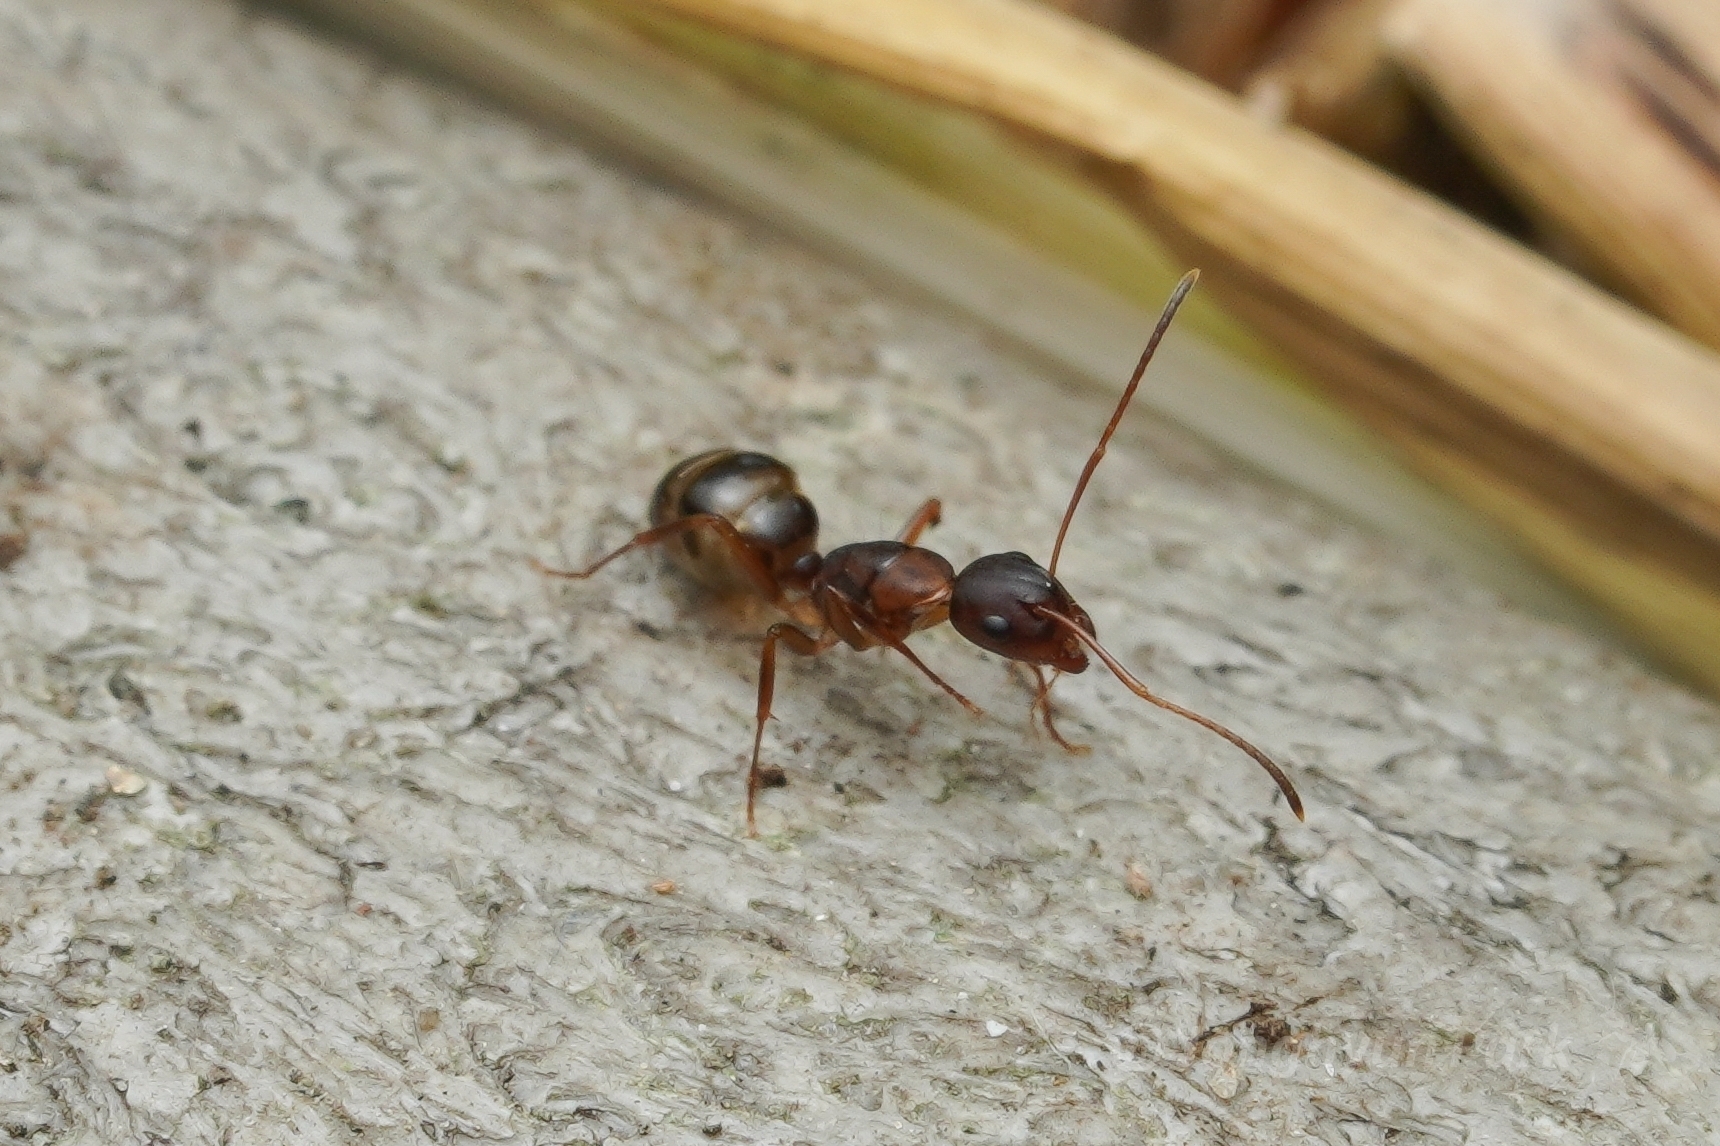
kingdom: Animalia
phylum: Arthropoda
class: Insecta
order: Hymenoptera
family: Formicidae
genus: Camponotus
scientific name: Camponotus subbarbatus
